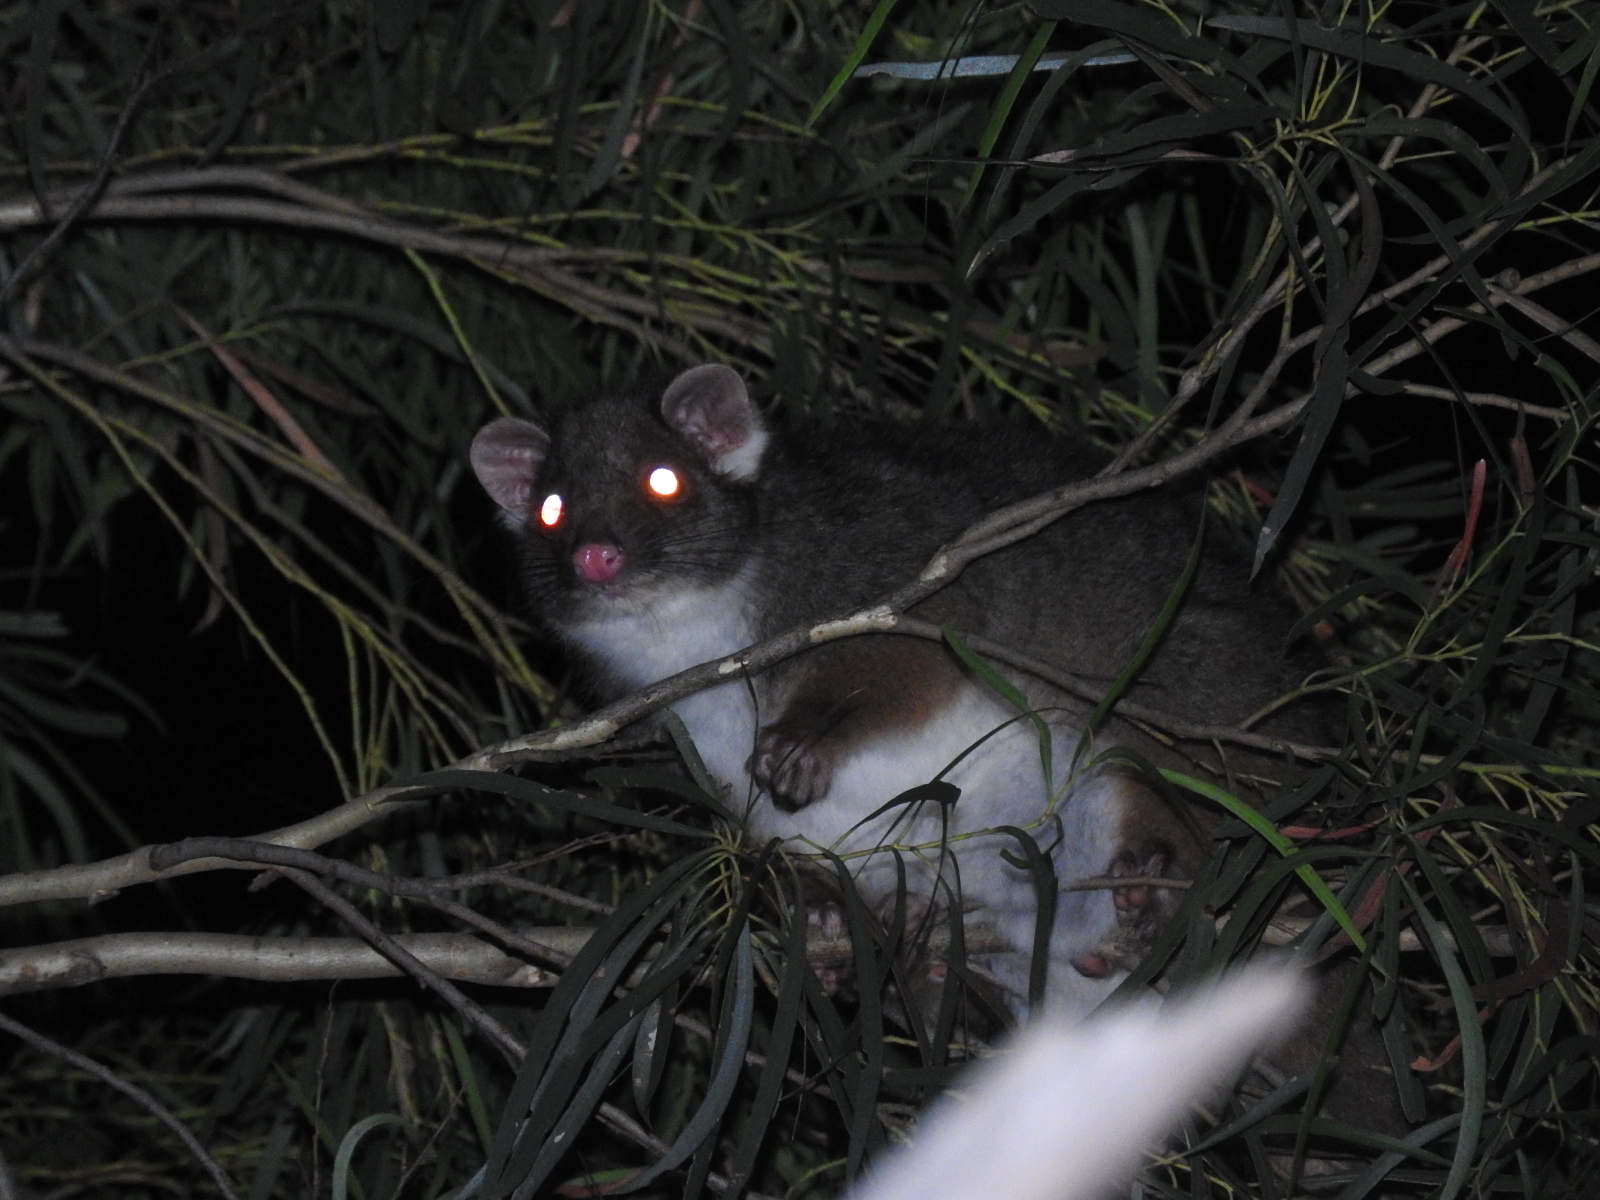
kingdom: Animalia
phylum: Chordata
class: Mammalia
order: Diprotodontia
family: Pseudocheiridae
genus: Pseudocheirus
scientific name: Pseudocheirus peregrinus
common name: Common ringtail possum
